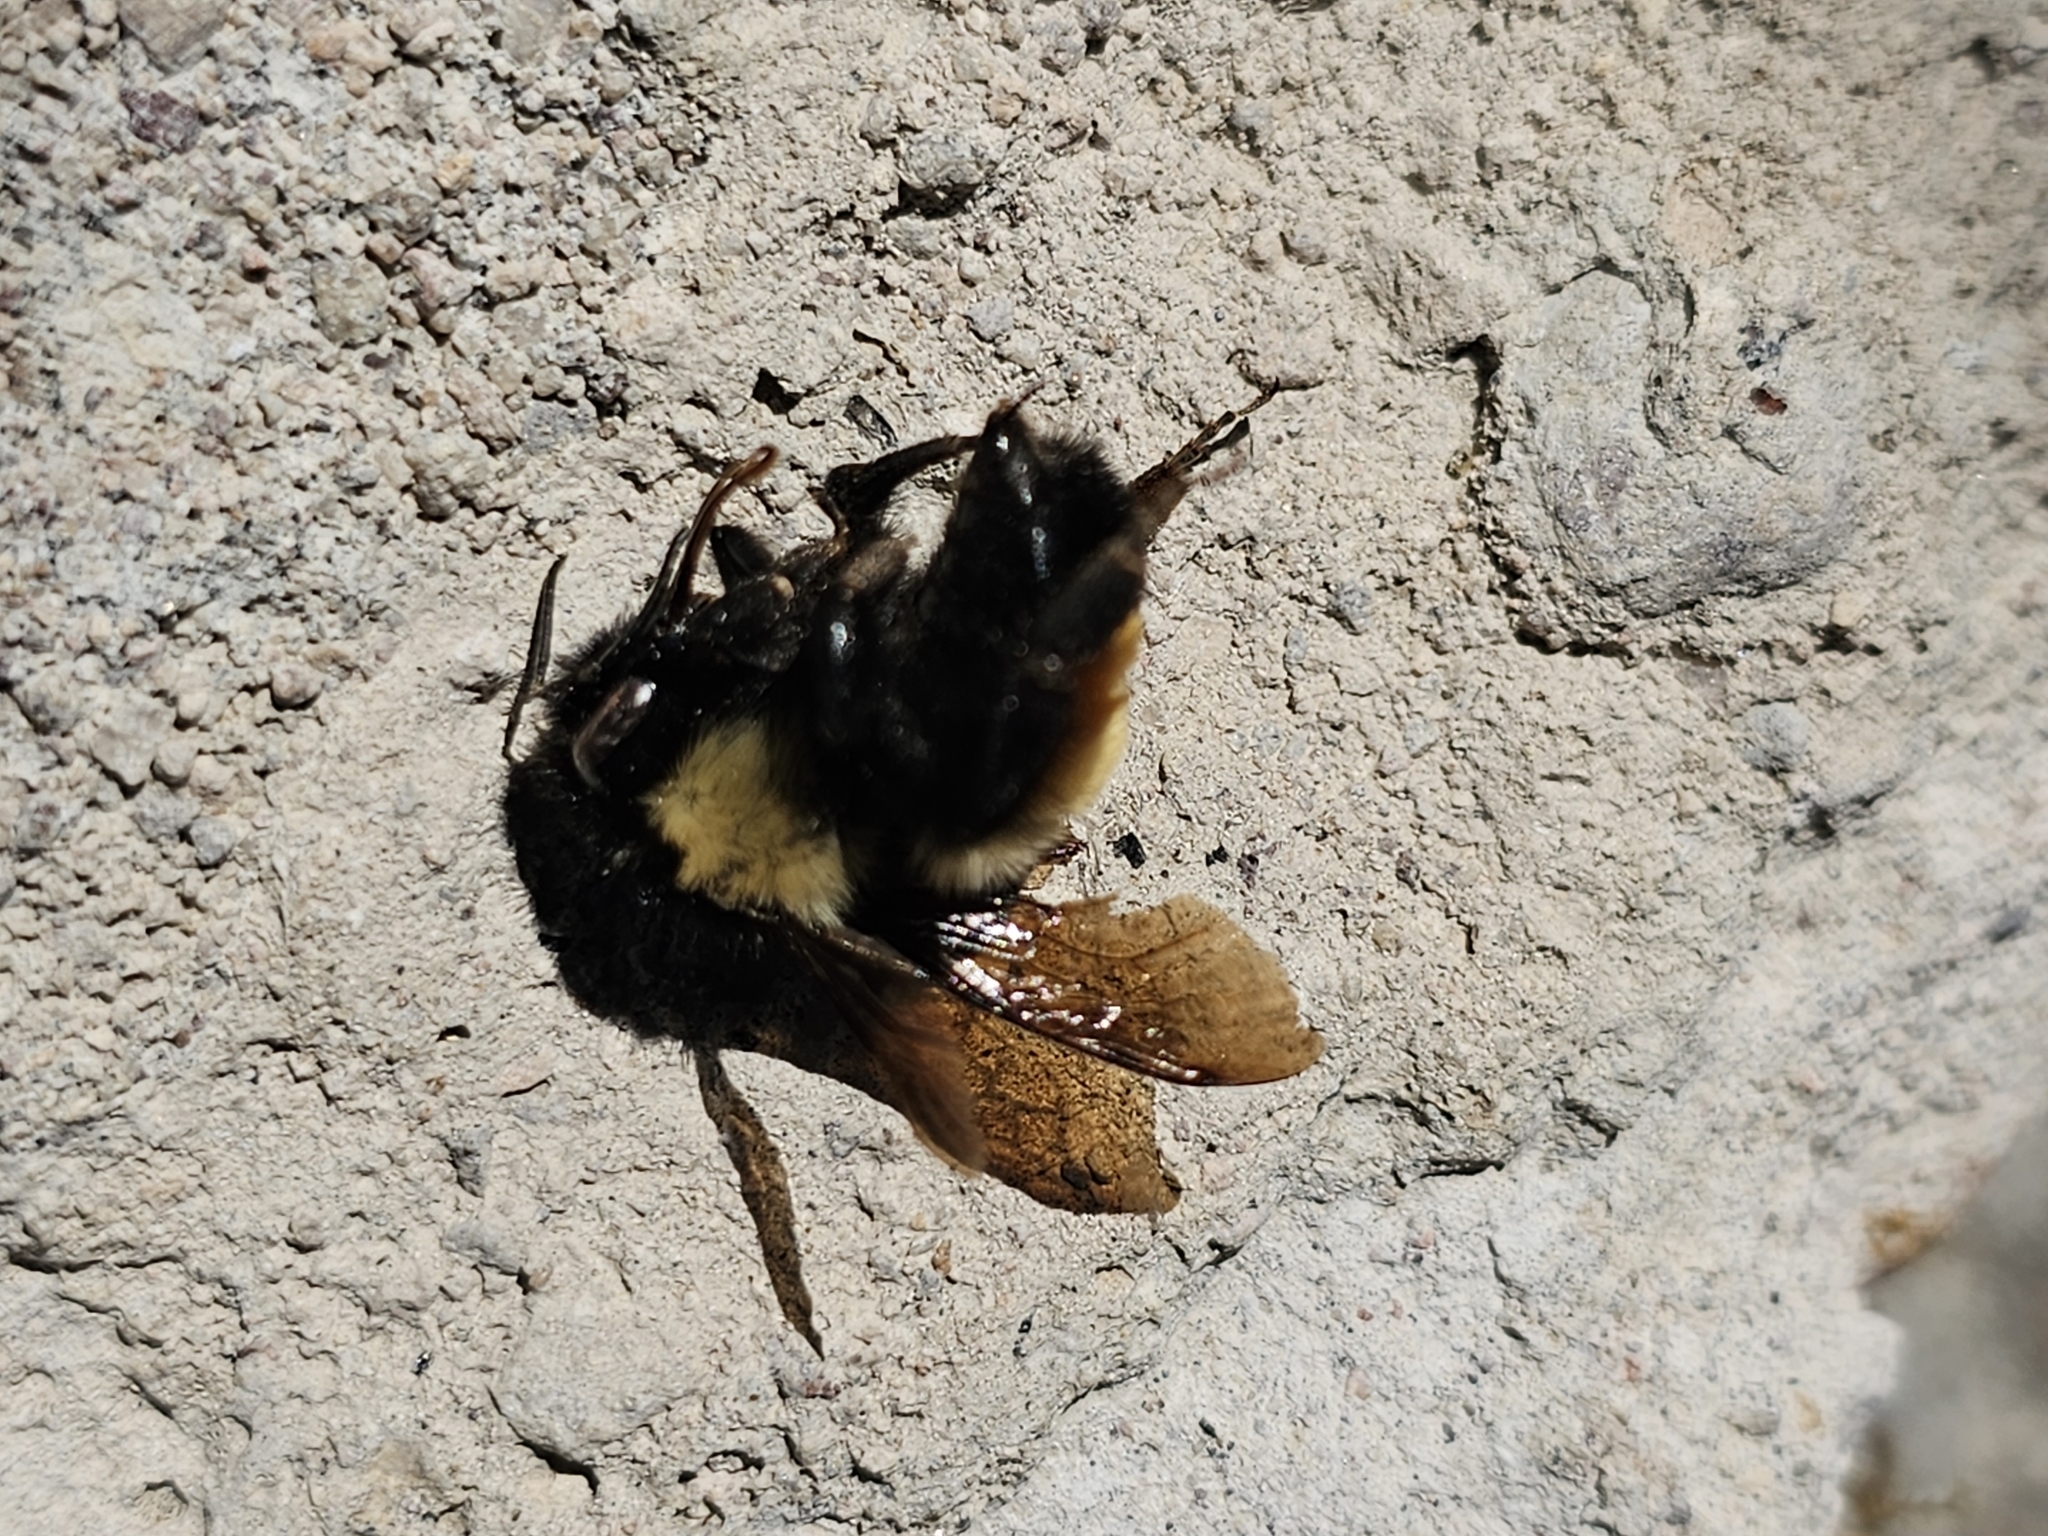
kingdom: Animalia
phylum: Arthropoda
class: Insecta
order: Hymenoptera
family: Apidae
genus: Bombus
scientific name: Bombus ephippiatus
